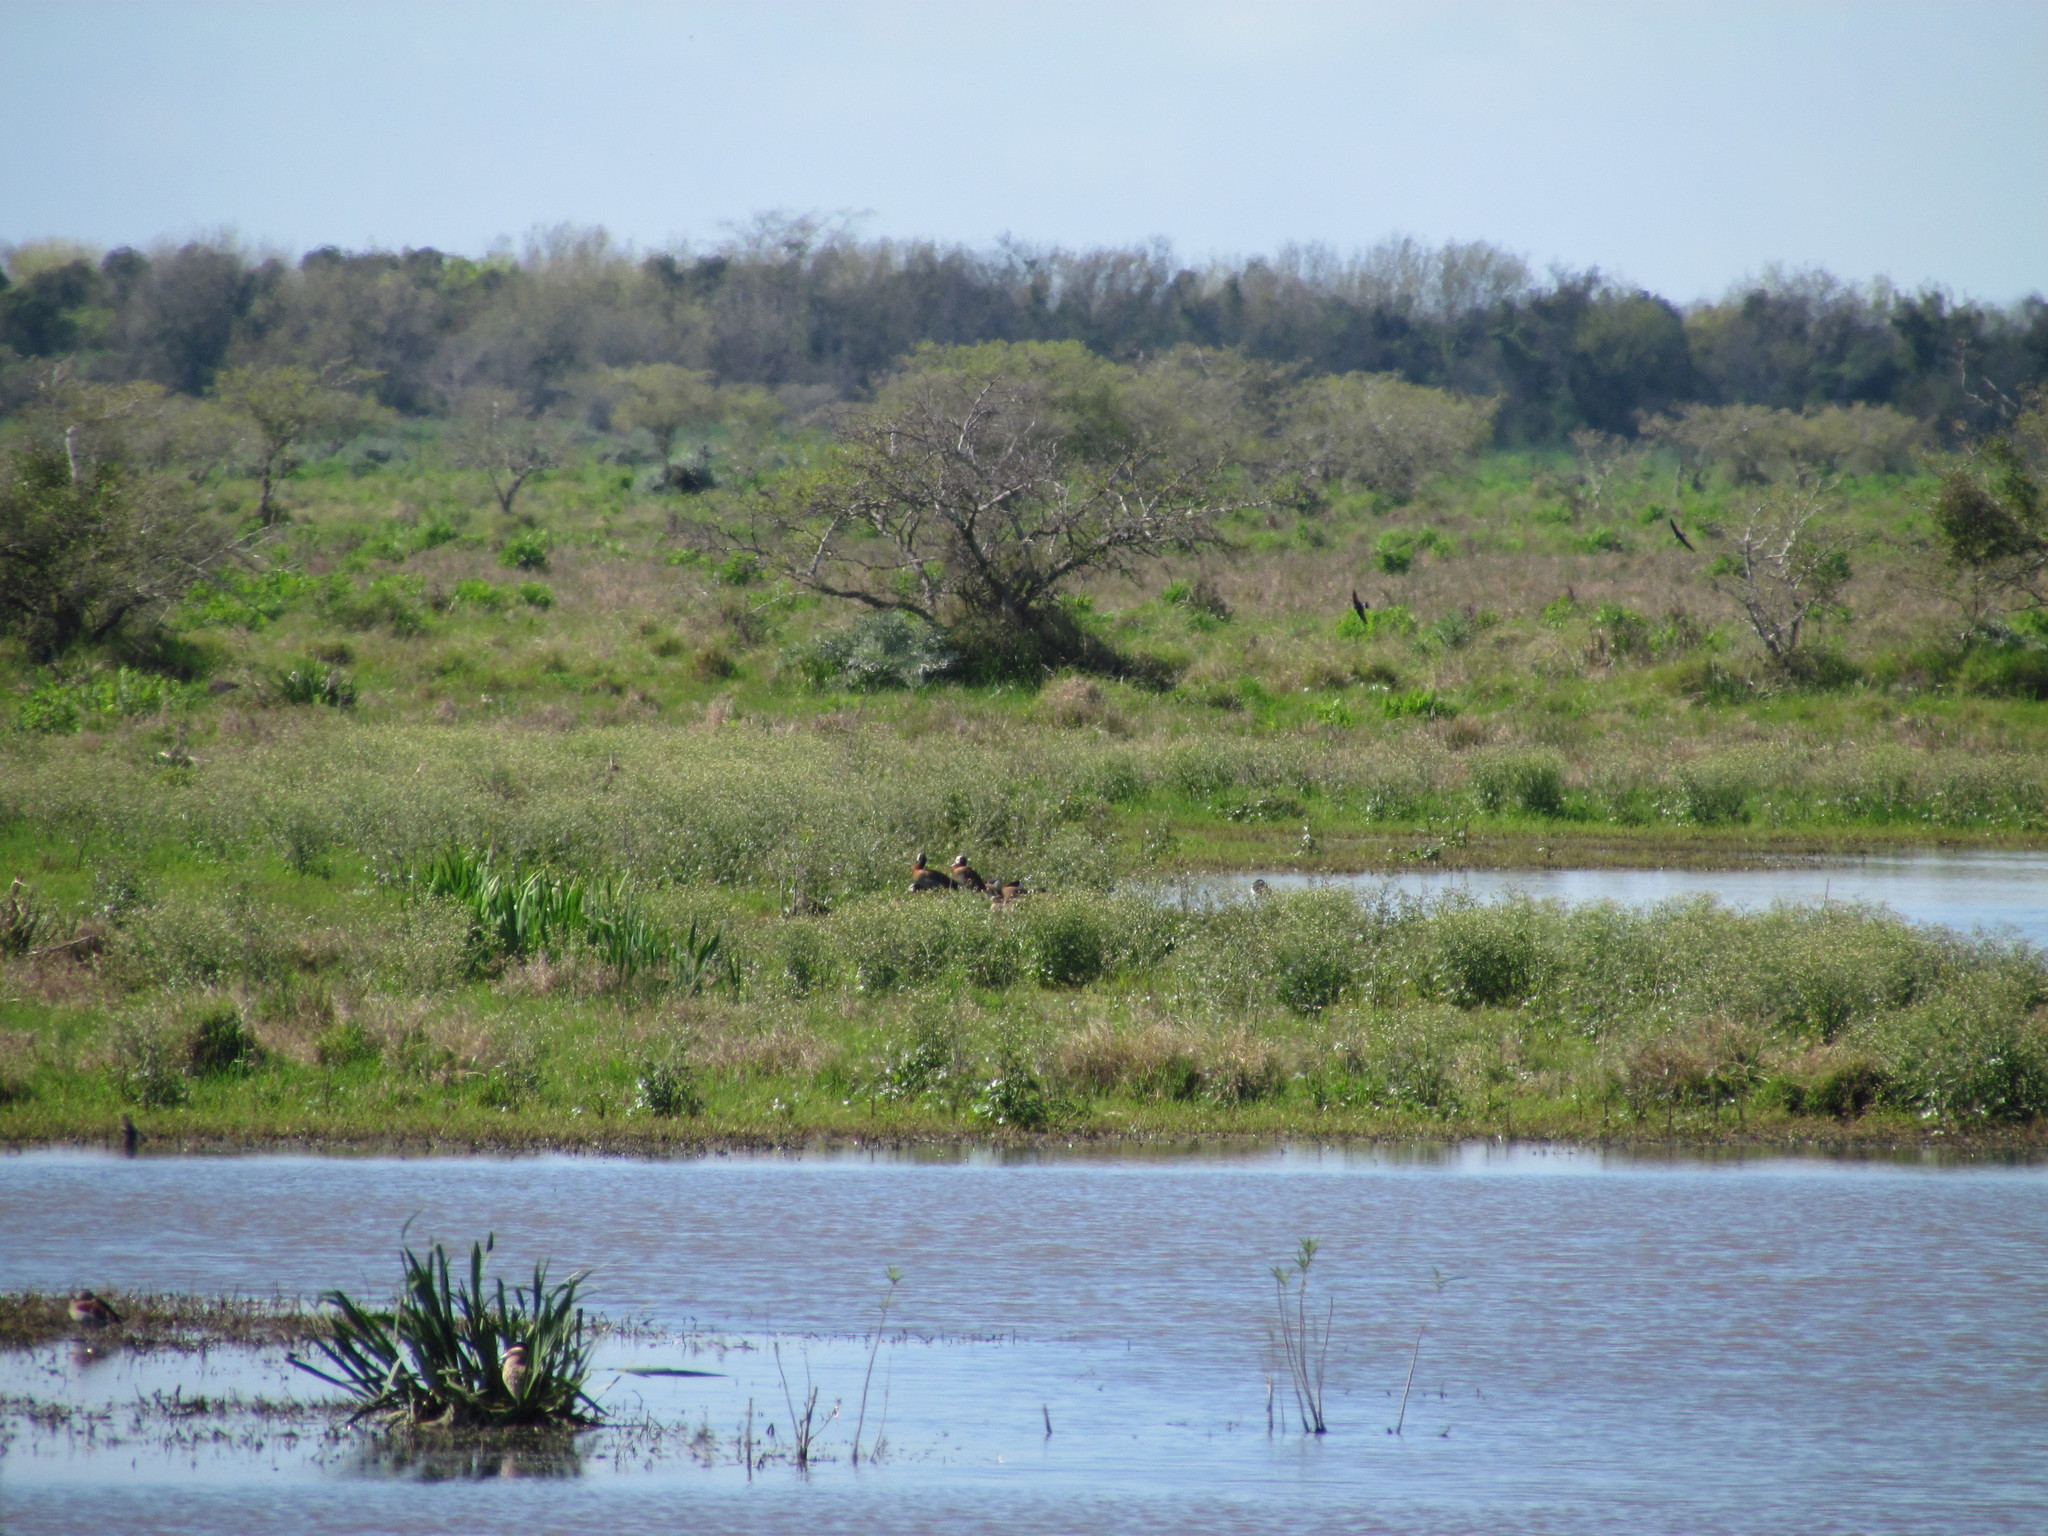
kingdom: Animalia
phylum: Chordata
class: Aves
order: Anseriformes
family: Anatidae
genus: Dendrocygna
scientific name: Dendrocygna viduata
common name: White-faced whistling duck
